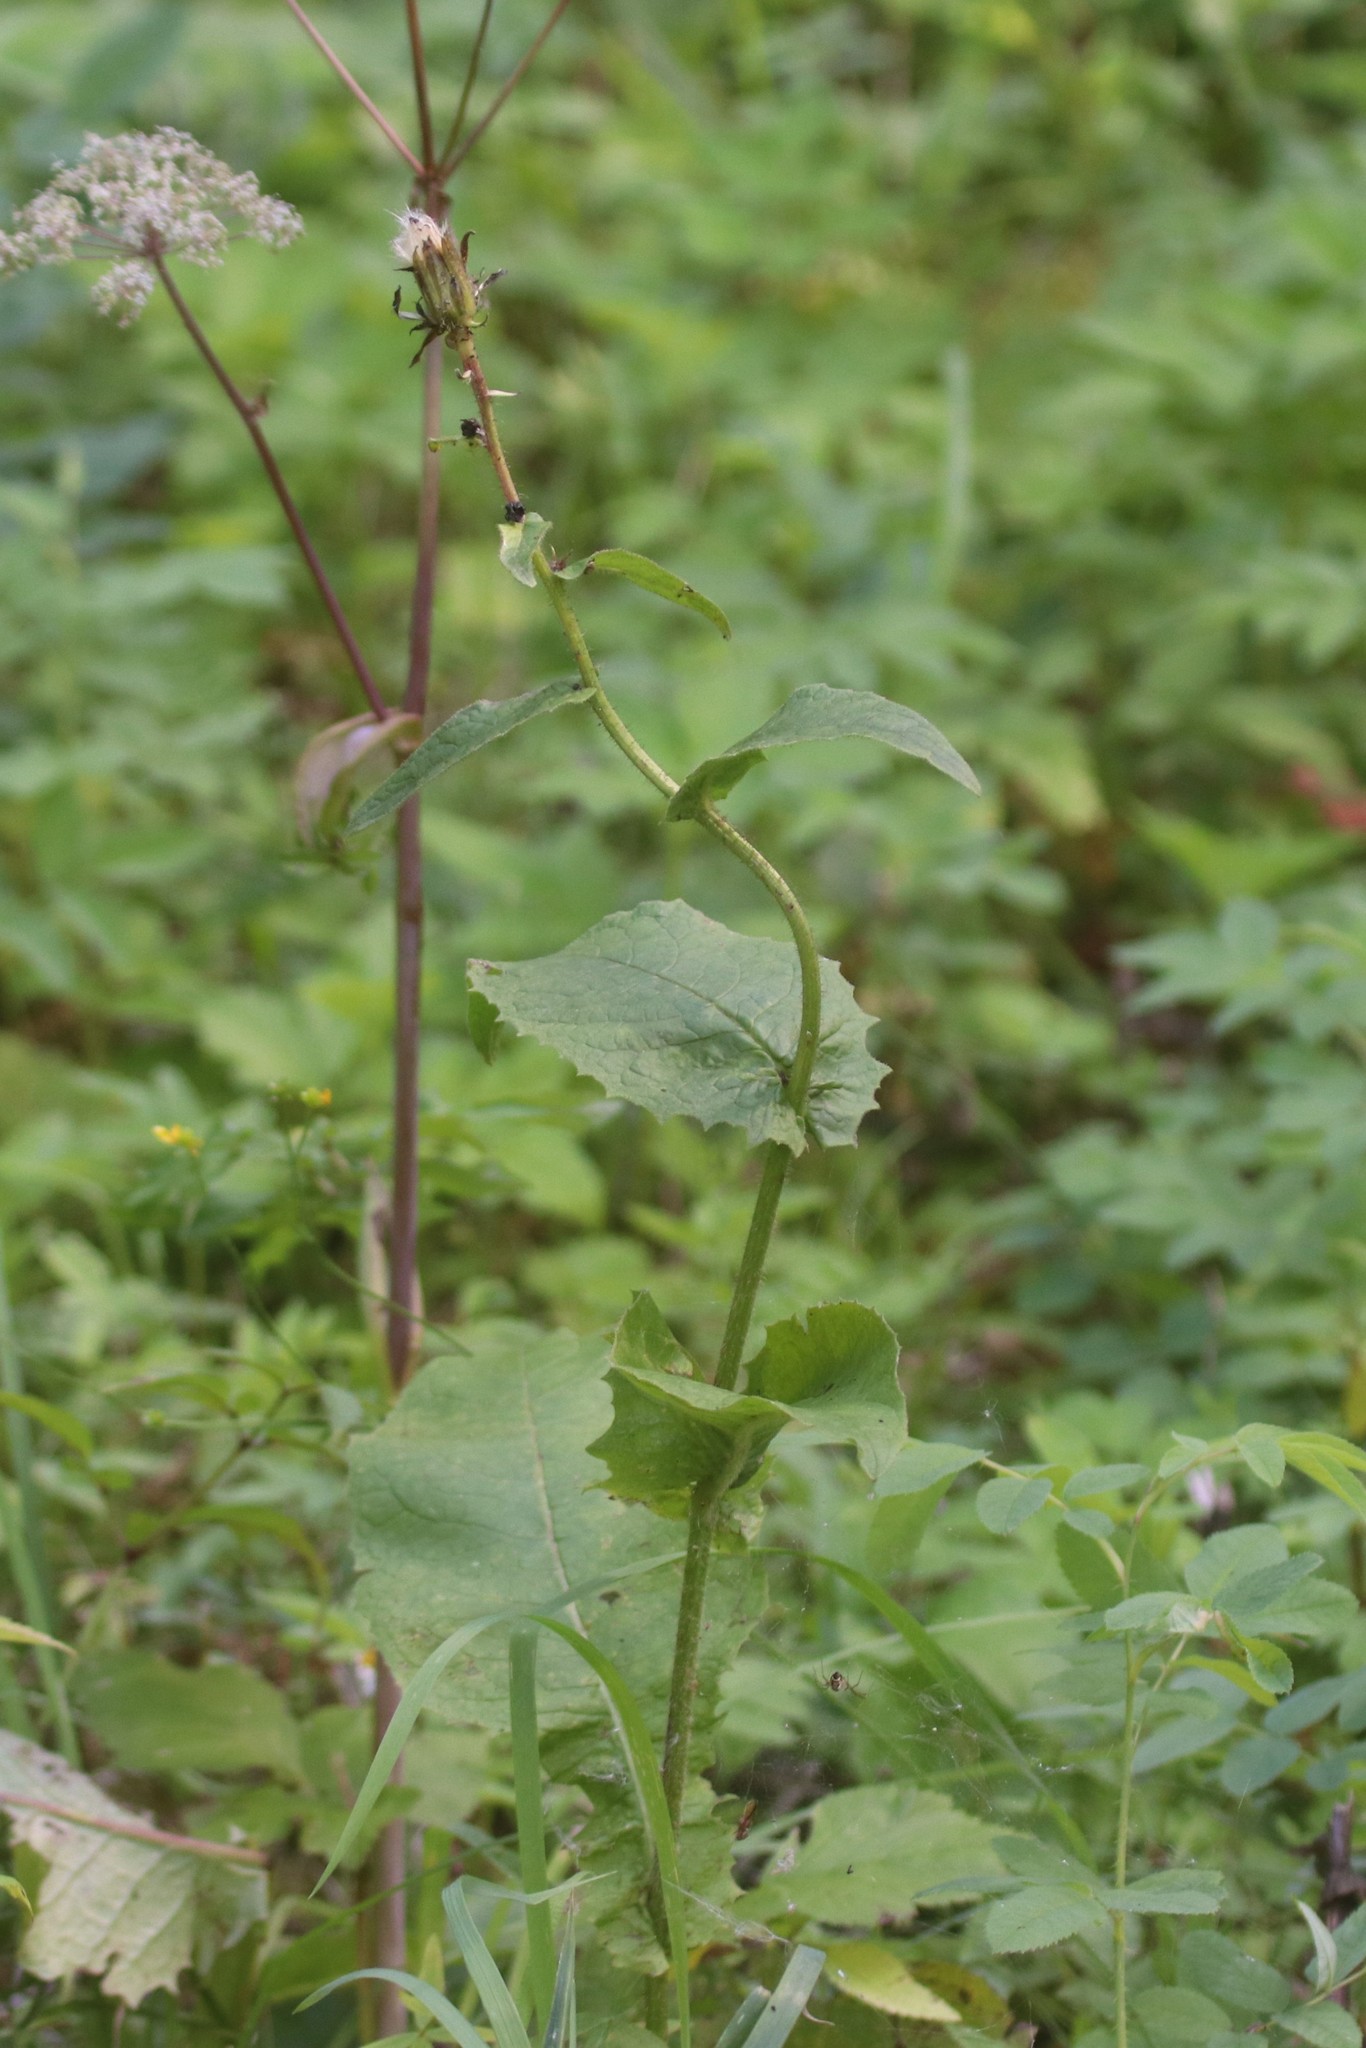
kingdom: Plantae
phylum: Tracheophyta
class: Magnoliopsida
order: Asterales
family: Asteraceae
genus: Crepis
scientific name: Crepis sibirica
